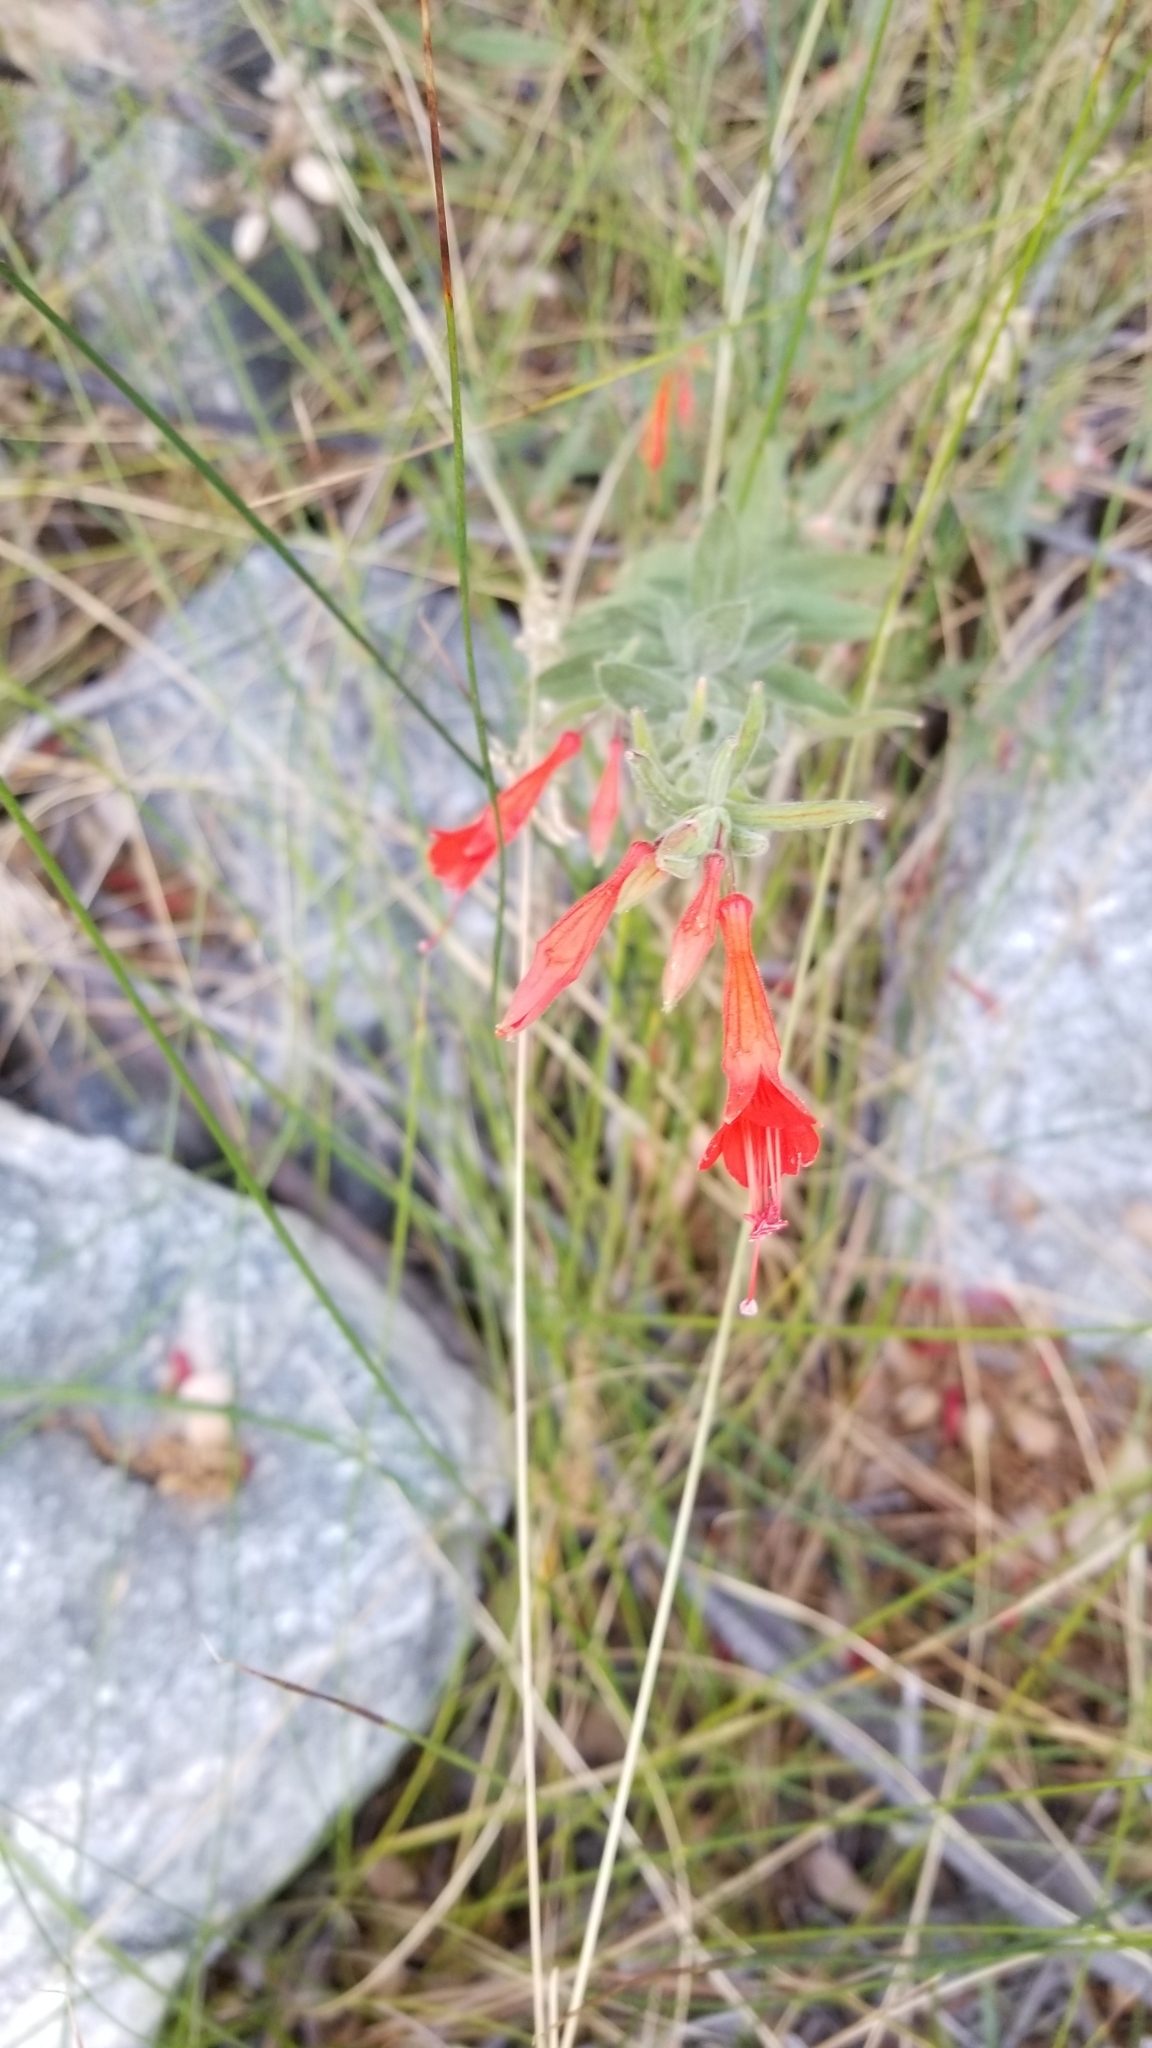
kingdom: Plantae
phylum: Tracheophyta
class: Magnoliopsida
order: Myrtales
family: Onagraceae
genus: Epilobium
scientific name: Epilobium canum
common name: California-fuchsia
